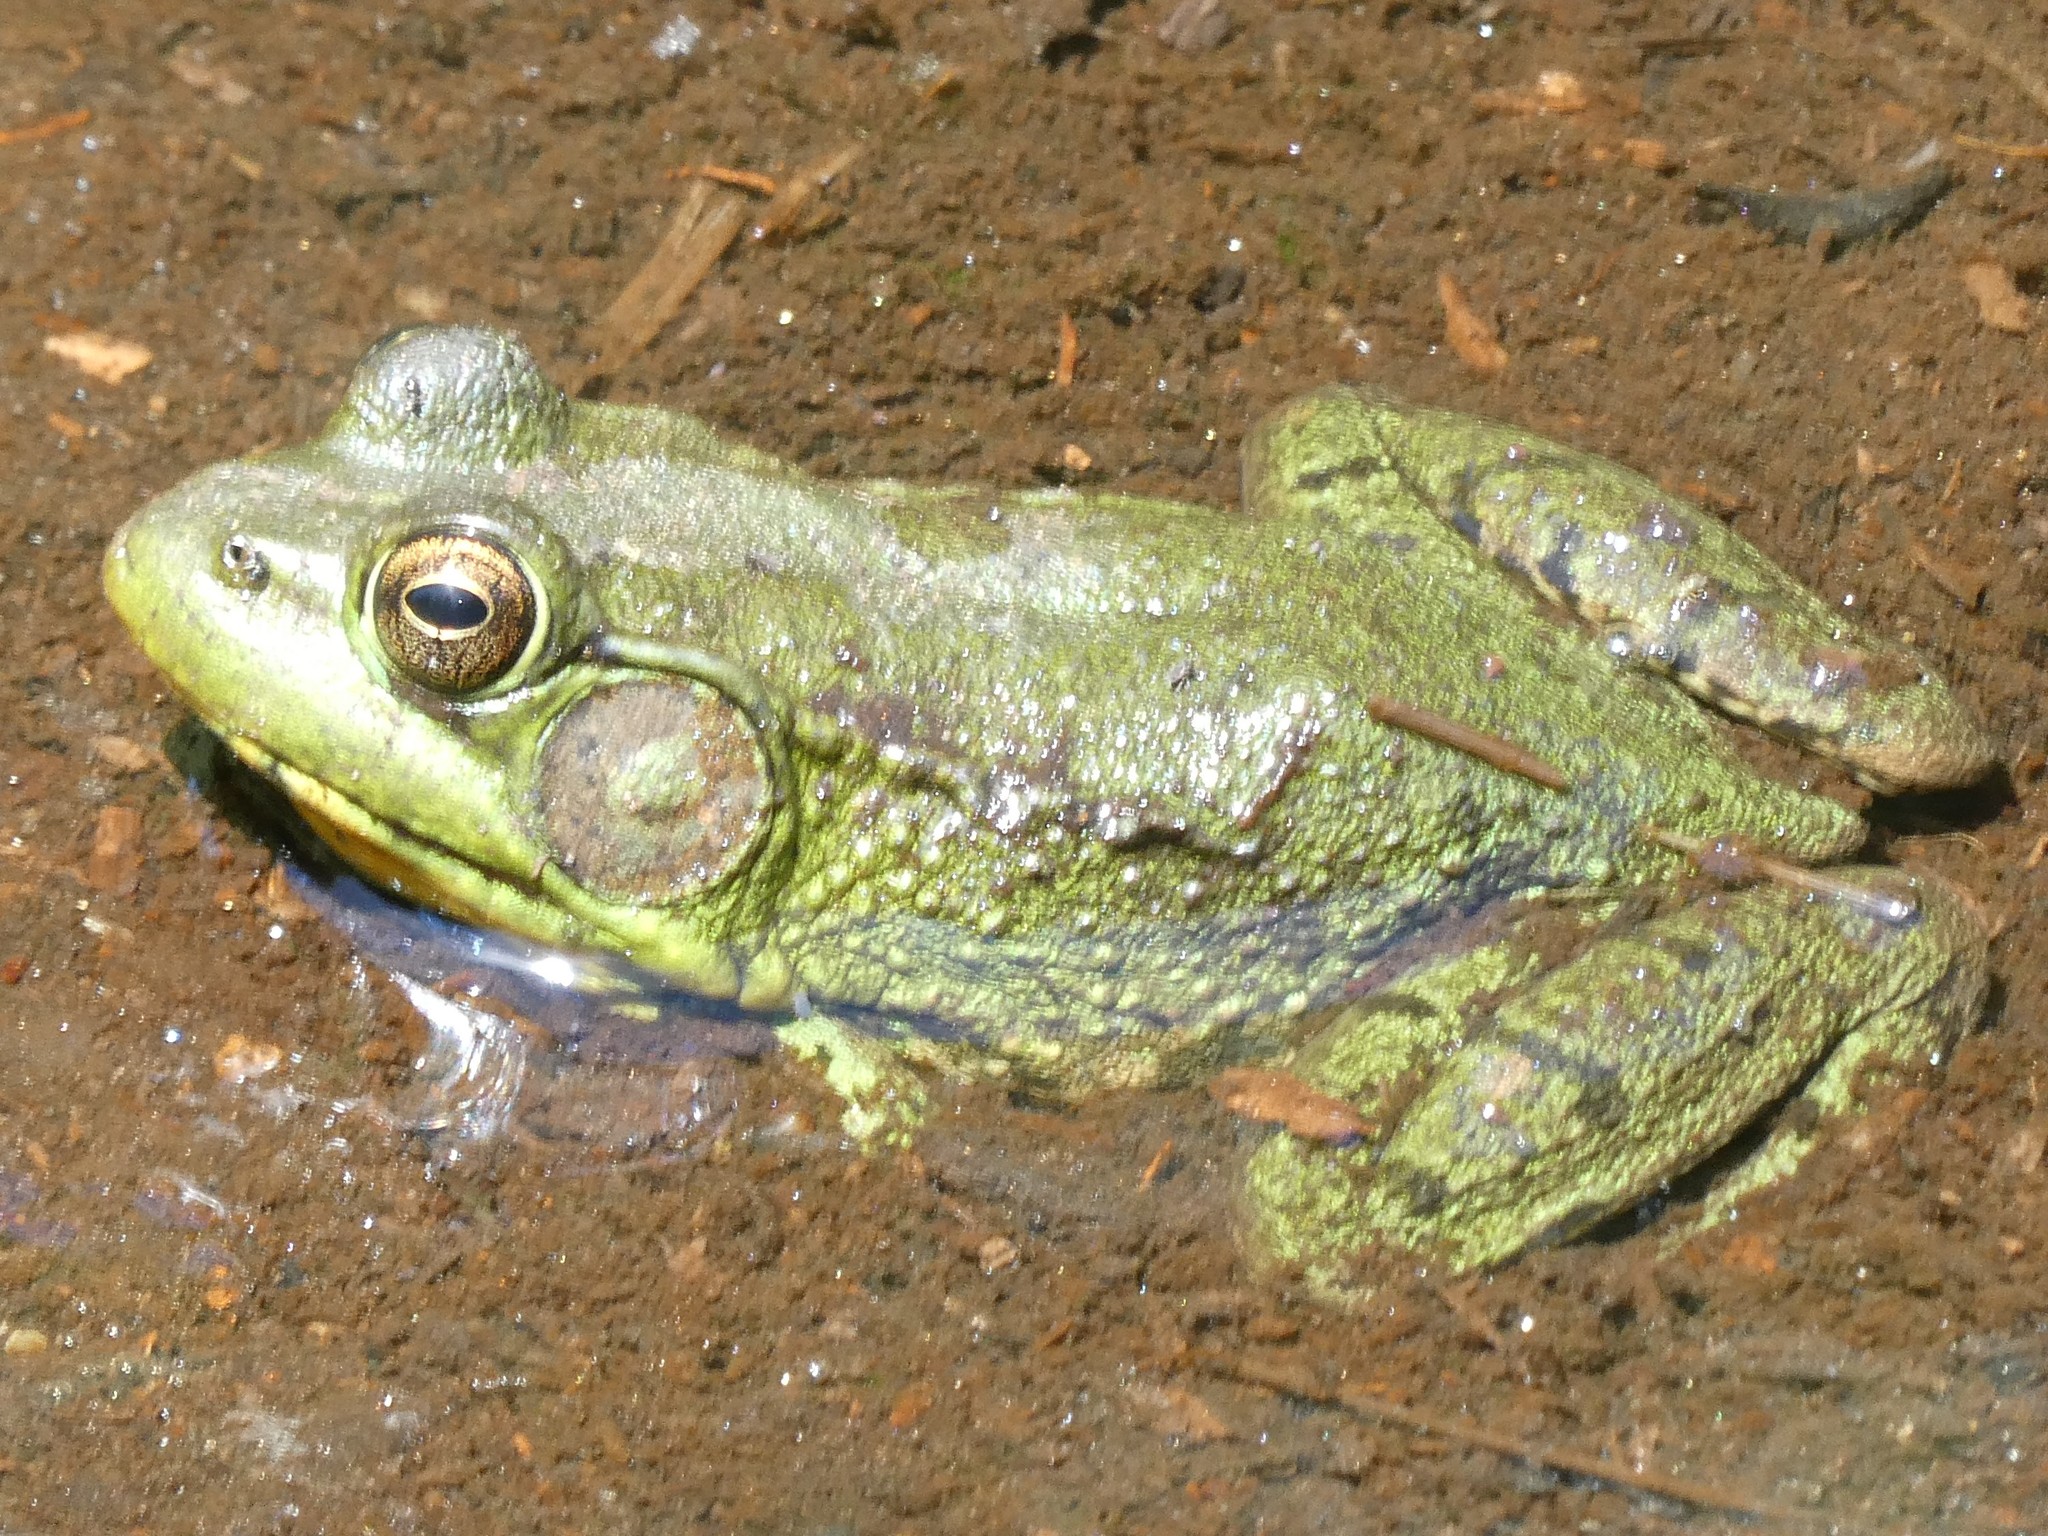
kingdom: Animalia
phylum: Chordata
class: Amphibia
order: Anura
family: Ranidae
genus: Lithobates
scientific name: Lithobates clamitans
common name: Green frog
